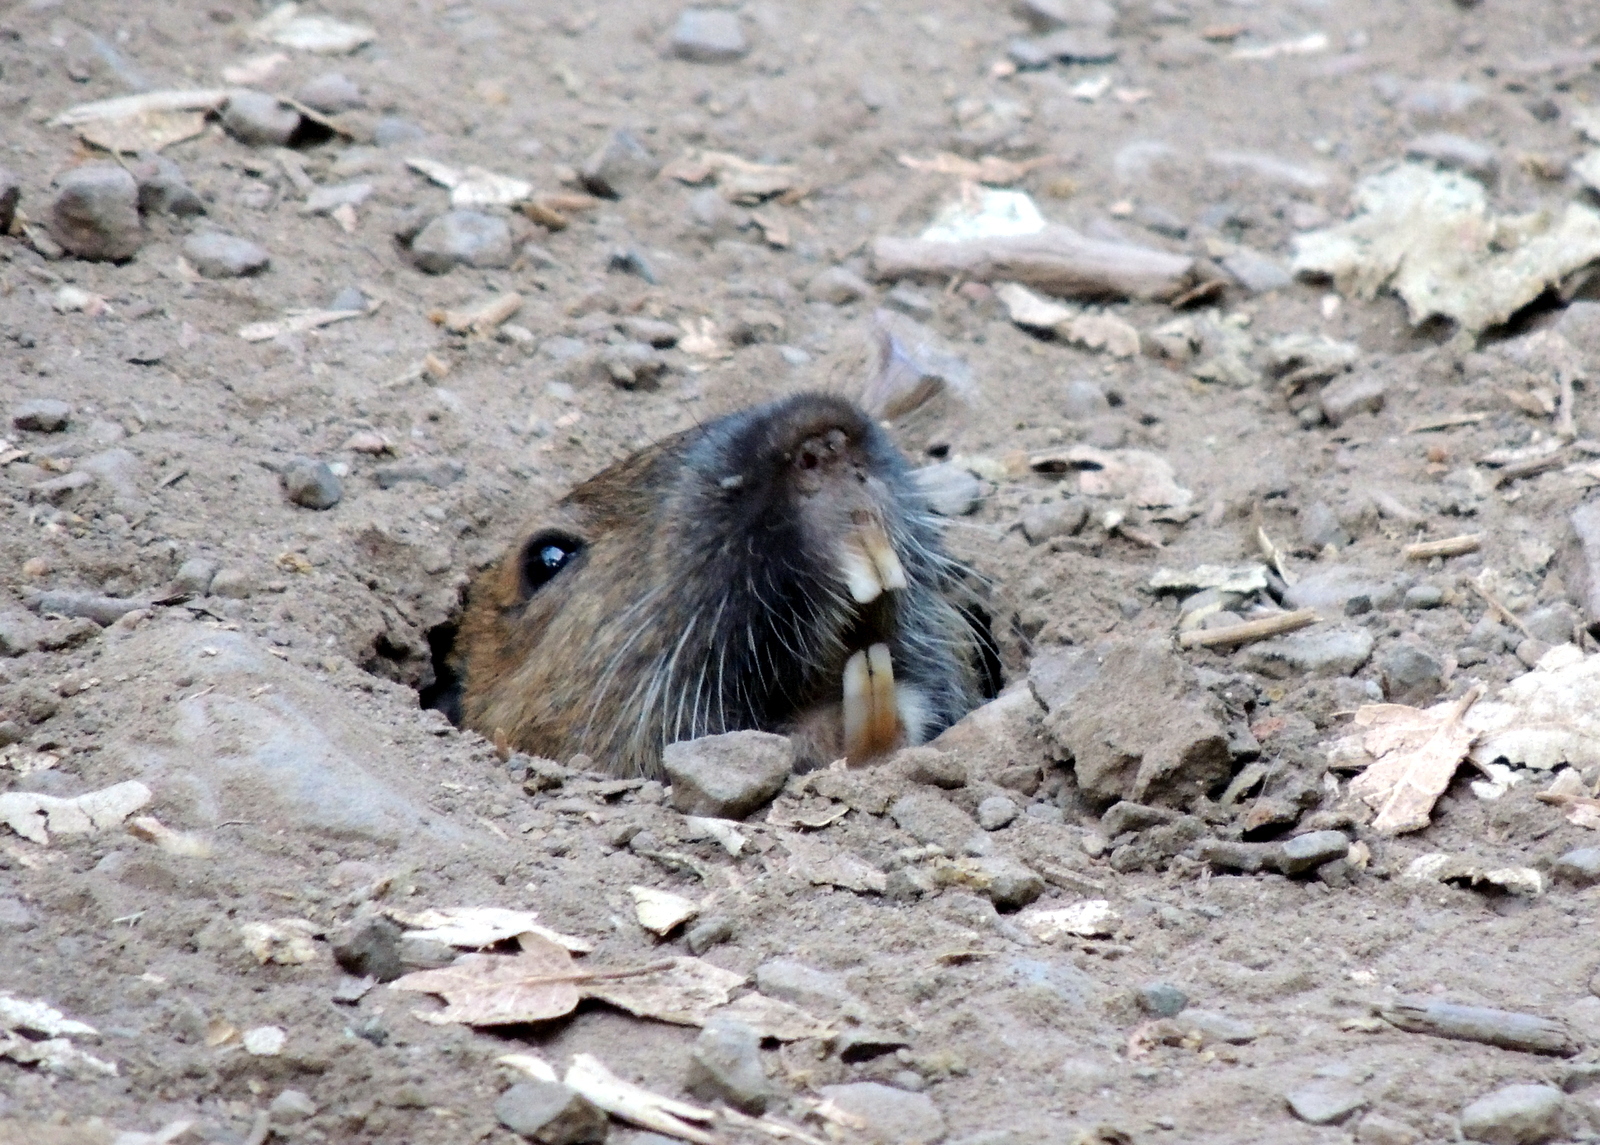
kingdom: Animalia
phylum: Chordata
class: Mammalia
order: Rodentia
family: Geomyidae
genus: Thomomys
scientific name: Thomomys bottae
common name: Botta's pocket gopher
